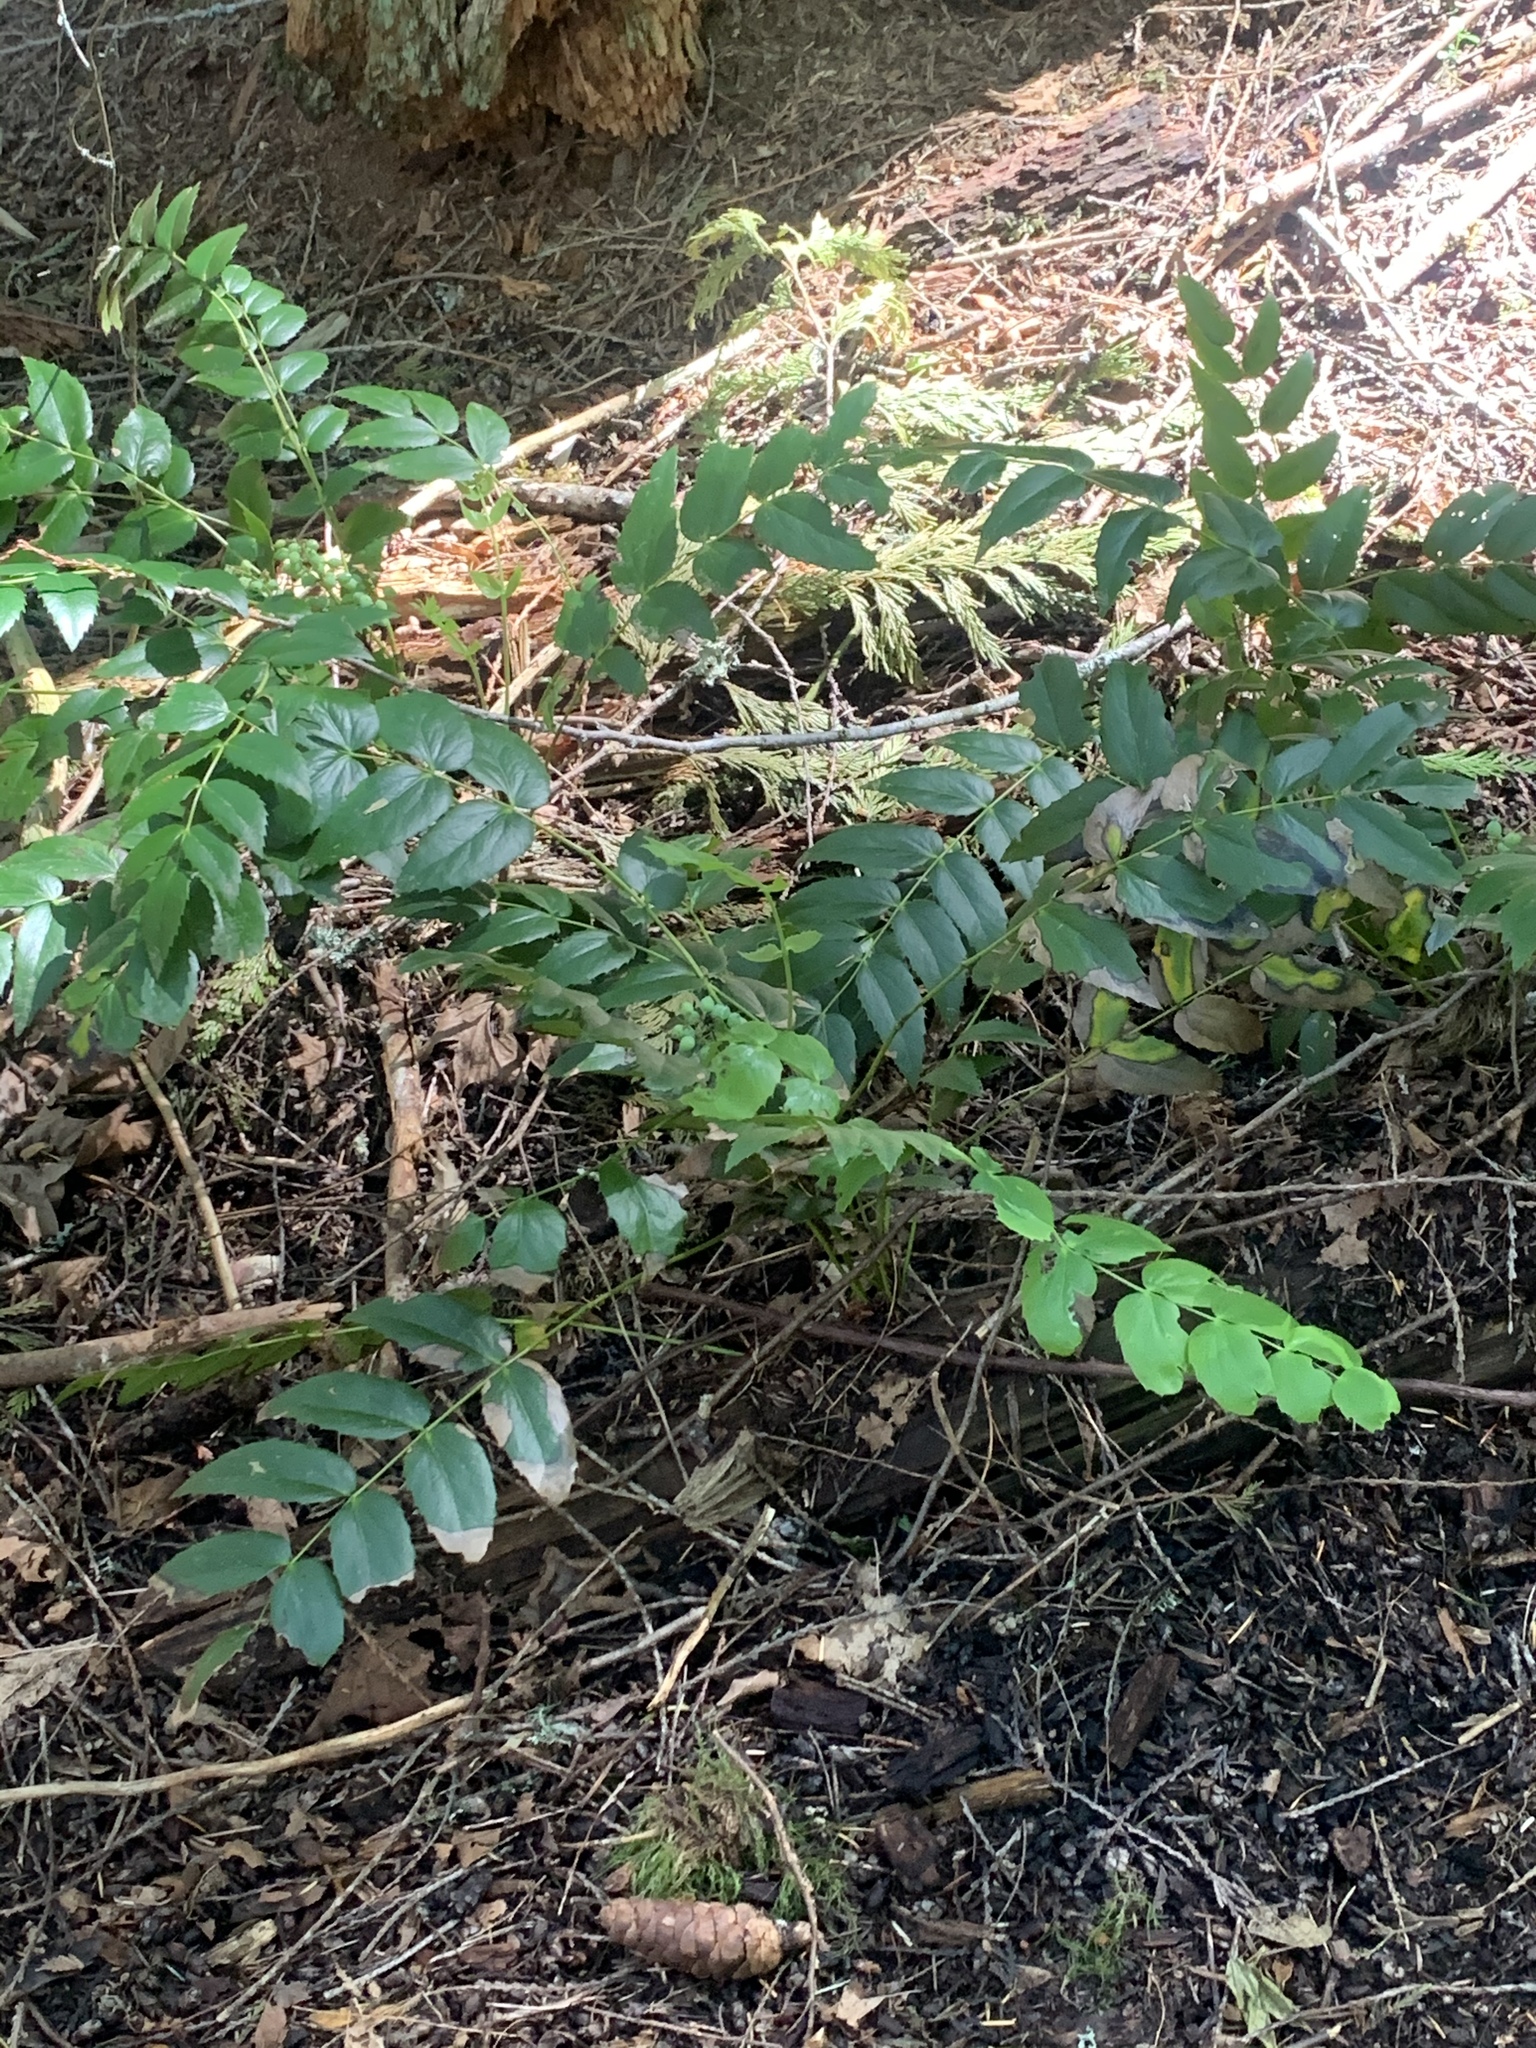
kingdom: Plantae
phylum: Tracheophyta
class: Magnoliopsida
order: Ranunculales
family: Berberidaceae
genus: Mahonia
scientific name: Mahonia nervosa
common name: Cascade oregon-grape
